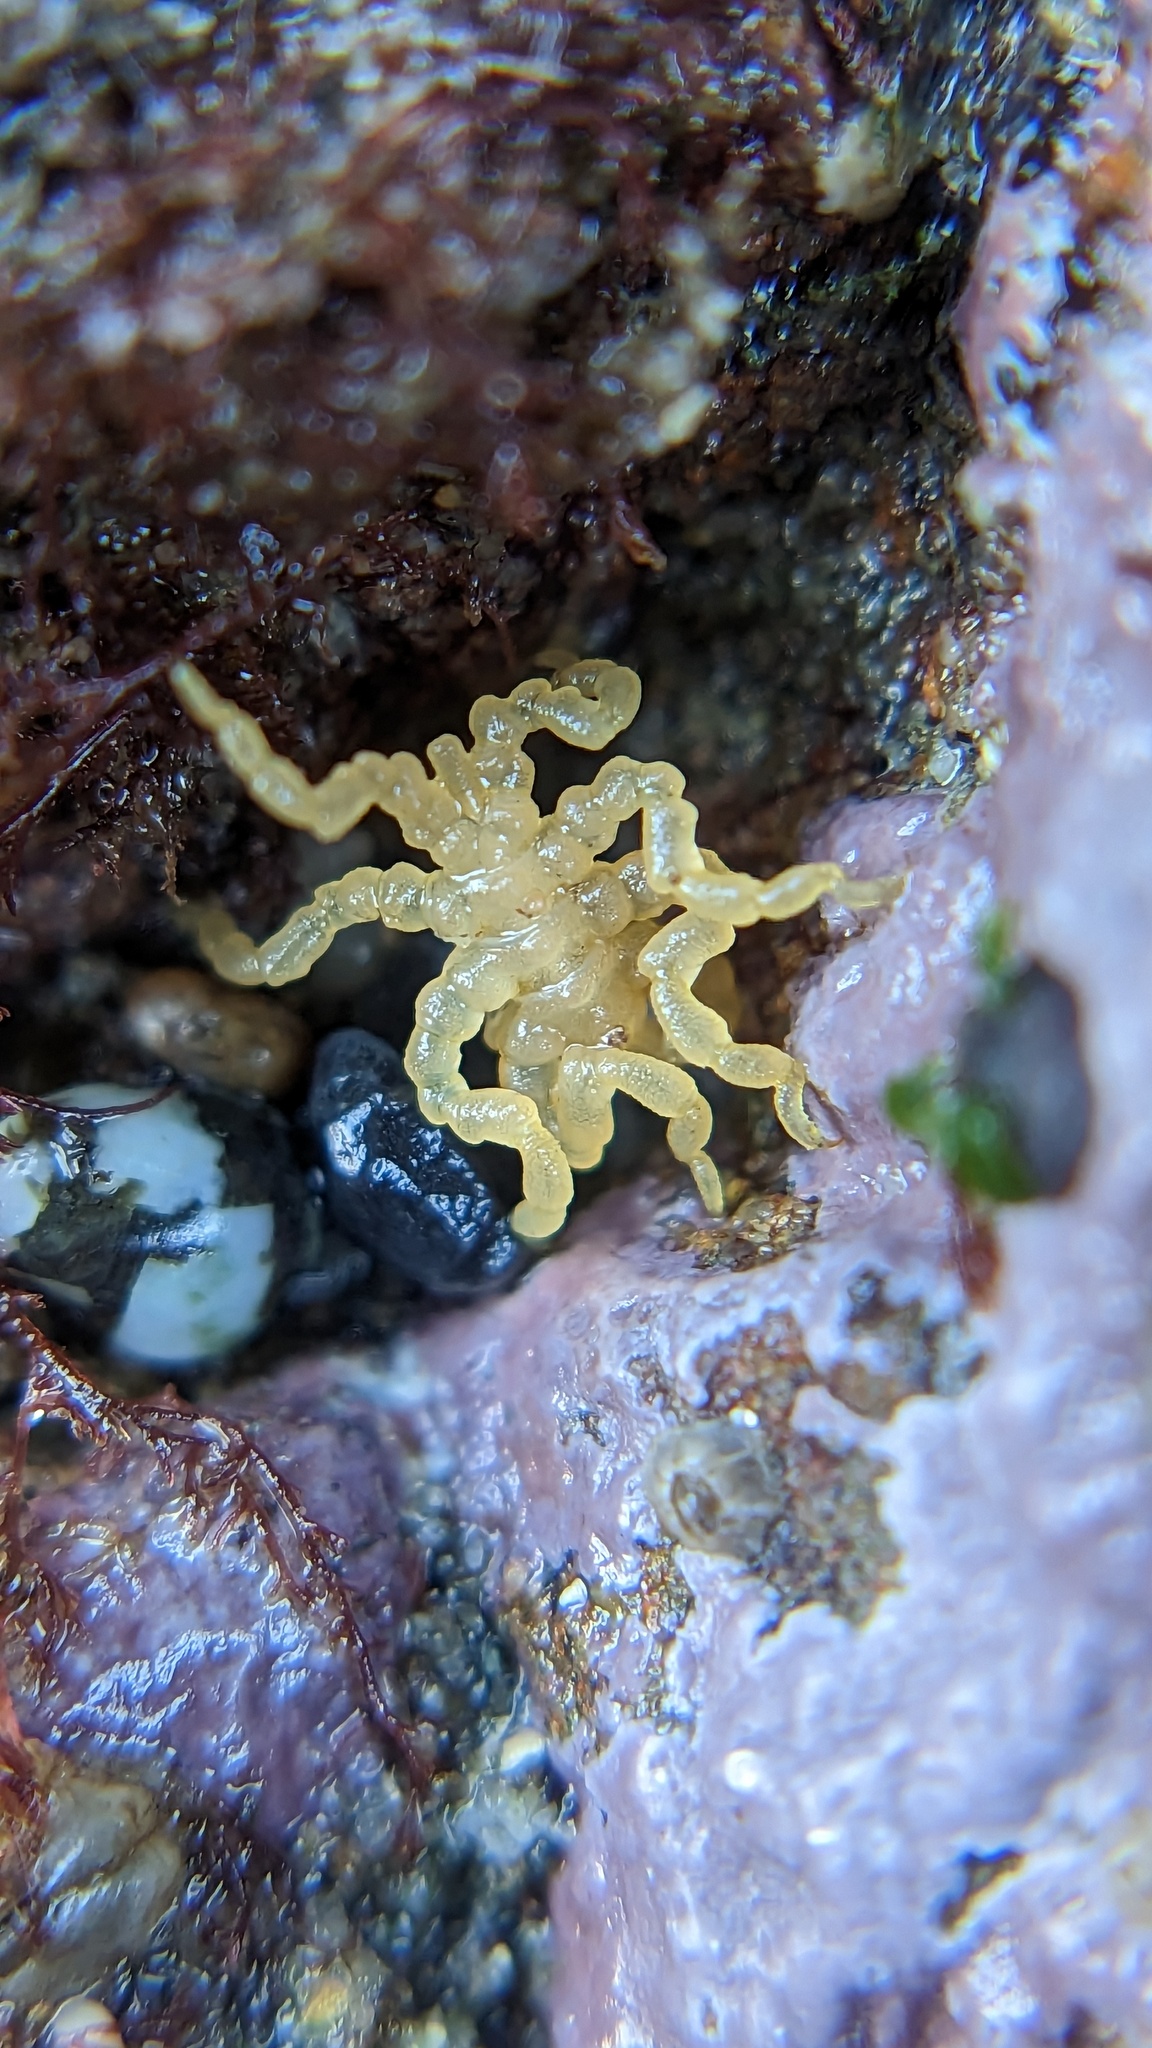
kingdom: Animalia
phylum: Arthropoda
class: Pycnogonida
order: Pantopoda
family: Pycnogonidae
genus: Pycnogonum
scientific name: Pycnogonum stearnsi
